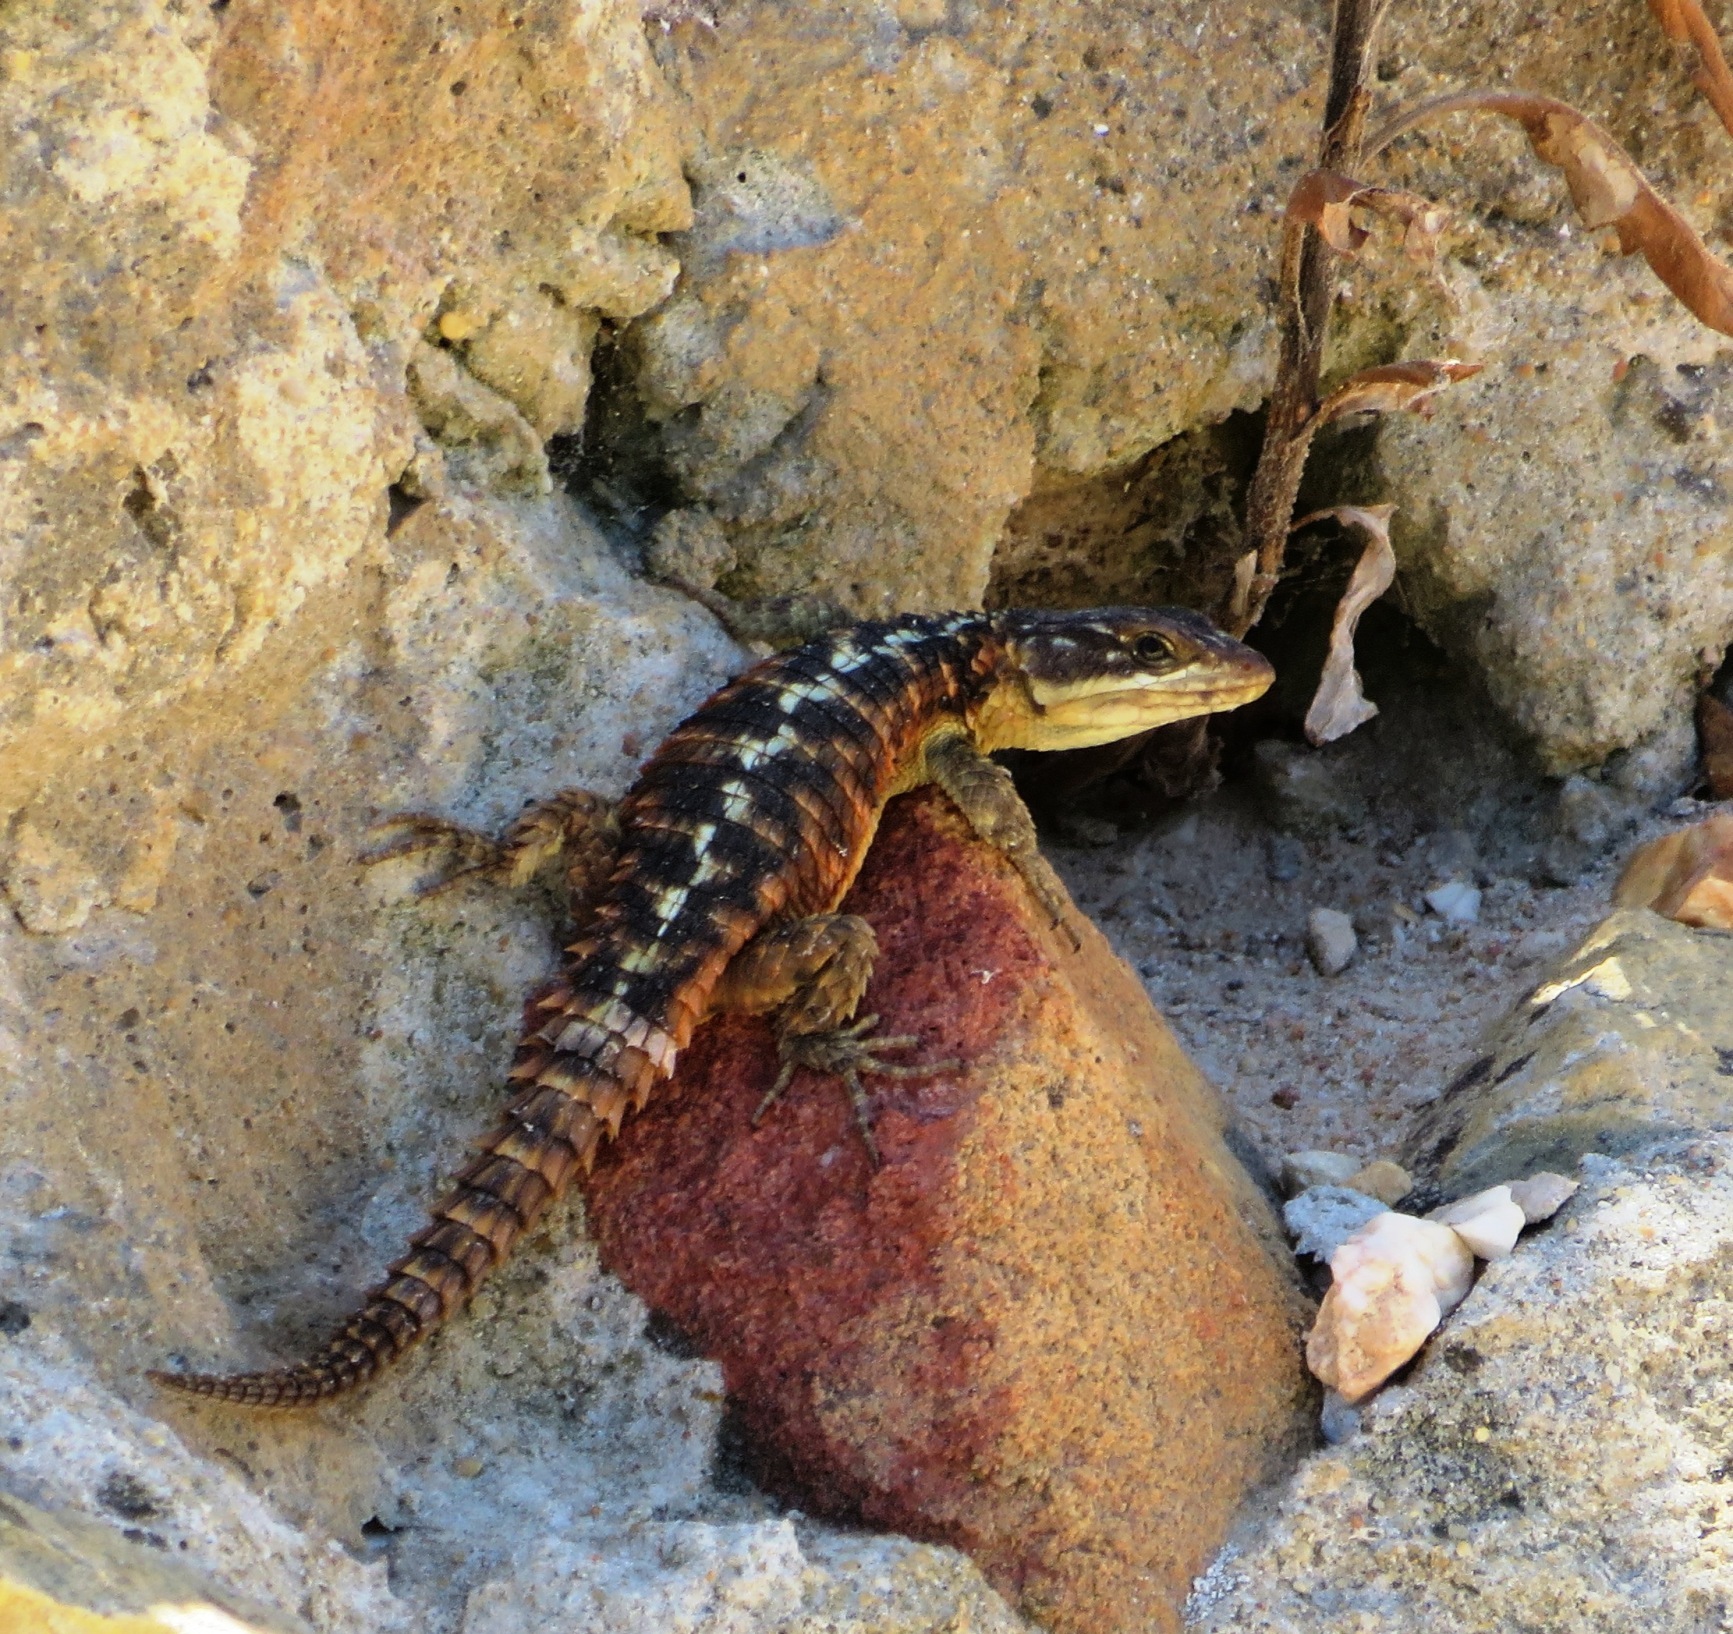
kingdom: Animalia
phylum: Chordata
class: Squamata
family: Cordylidae
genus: Cordylus
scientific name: Cordylus cordylus
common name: Cape girdled lizard
